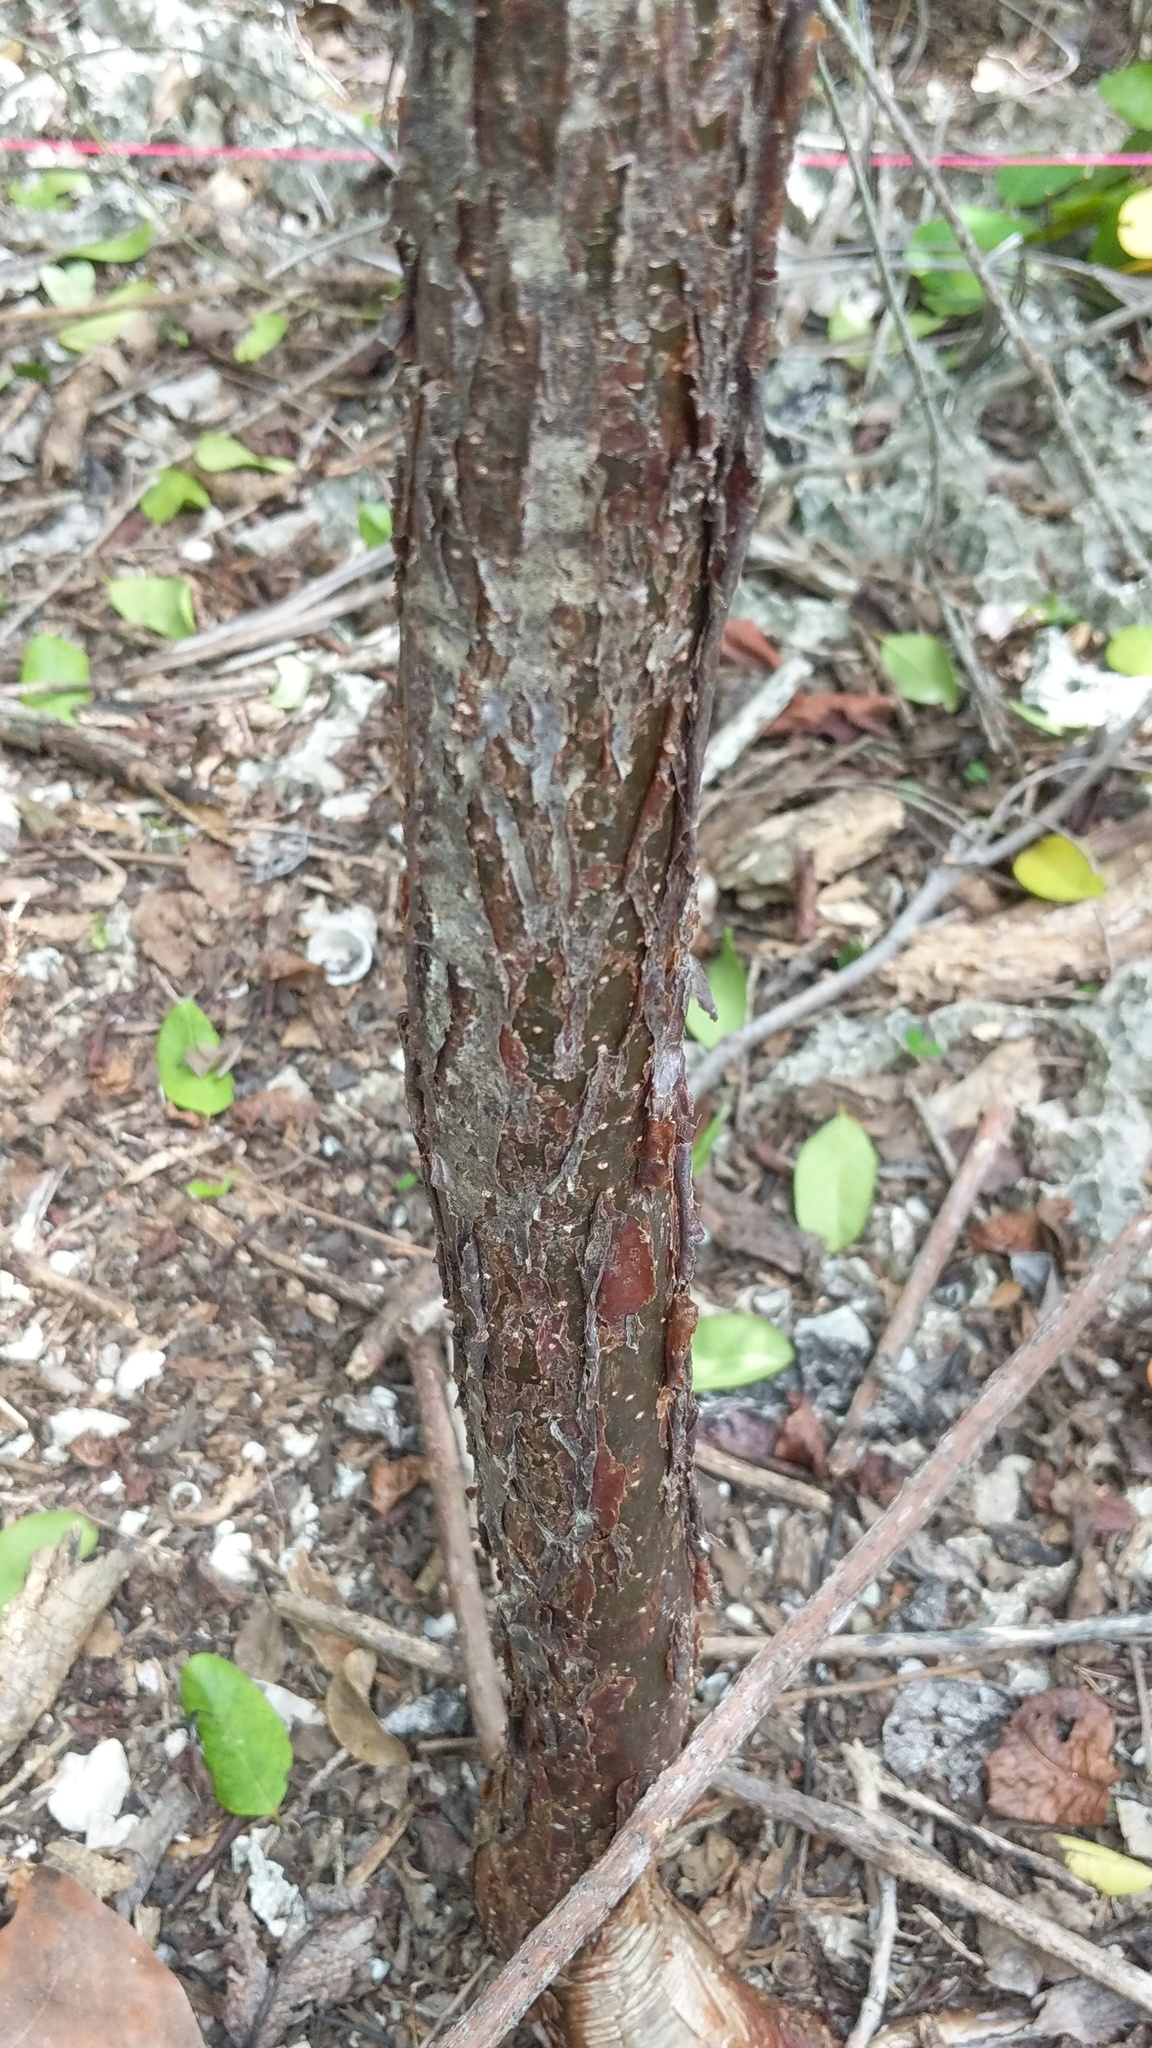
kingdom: Plantae
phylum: Tracheophyta
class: Magnoliopsida
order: Sapindales
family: Burseraceae
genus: Bursera
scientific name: Bursera simaruba
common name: Turpentine tree
